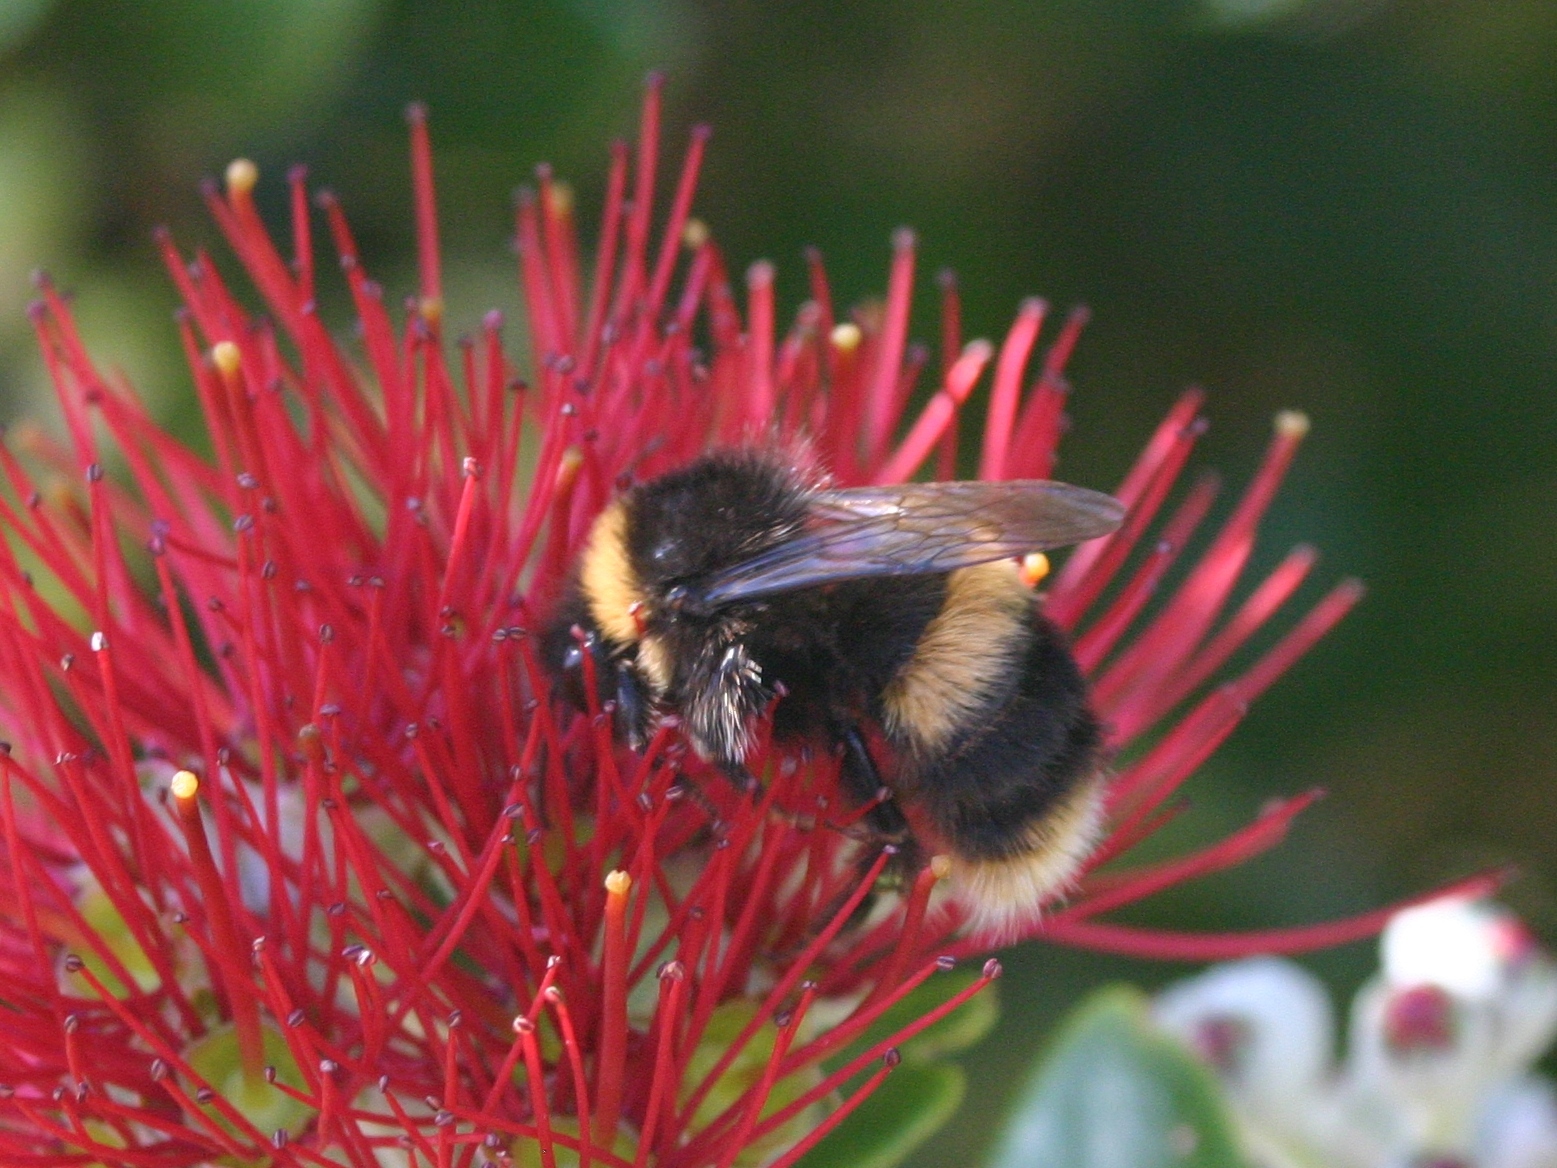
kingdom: Animalia
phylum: Arthropoda
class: Insecta
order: Hymenoptera
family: Apidae
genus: Bombus
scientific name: Bombus terrestris
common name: Buff-tailed bumblebee
